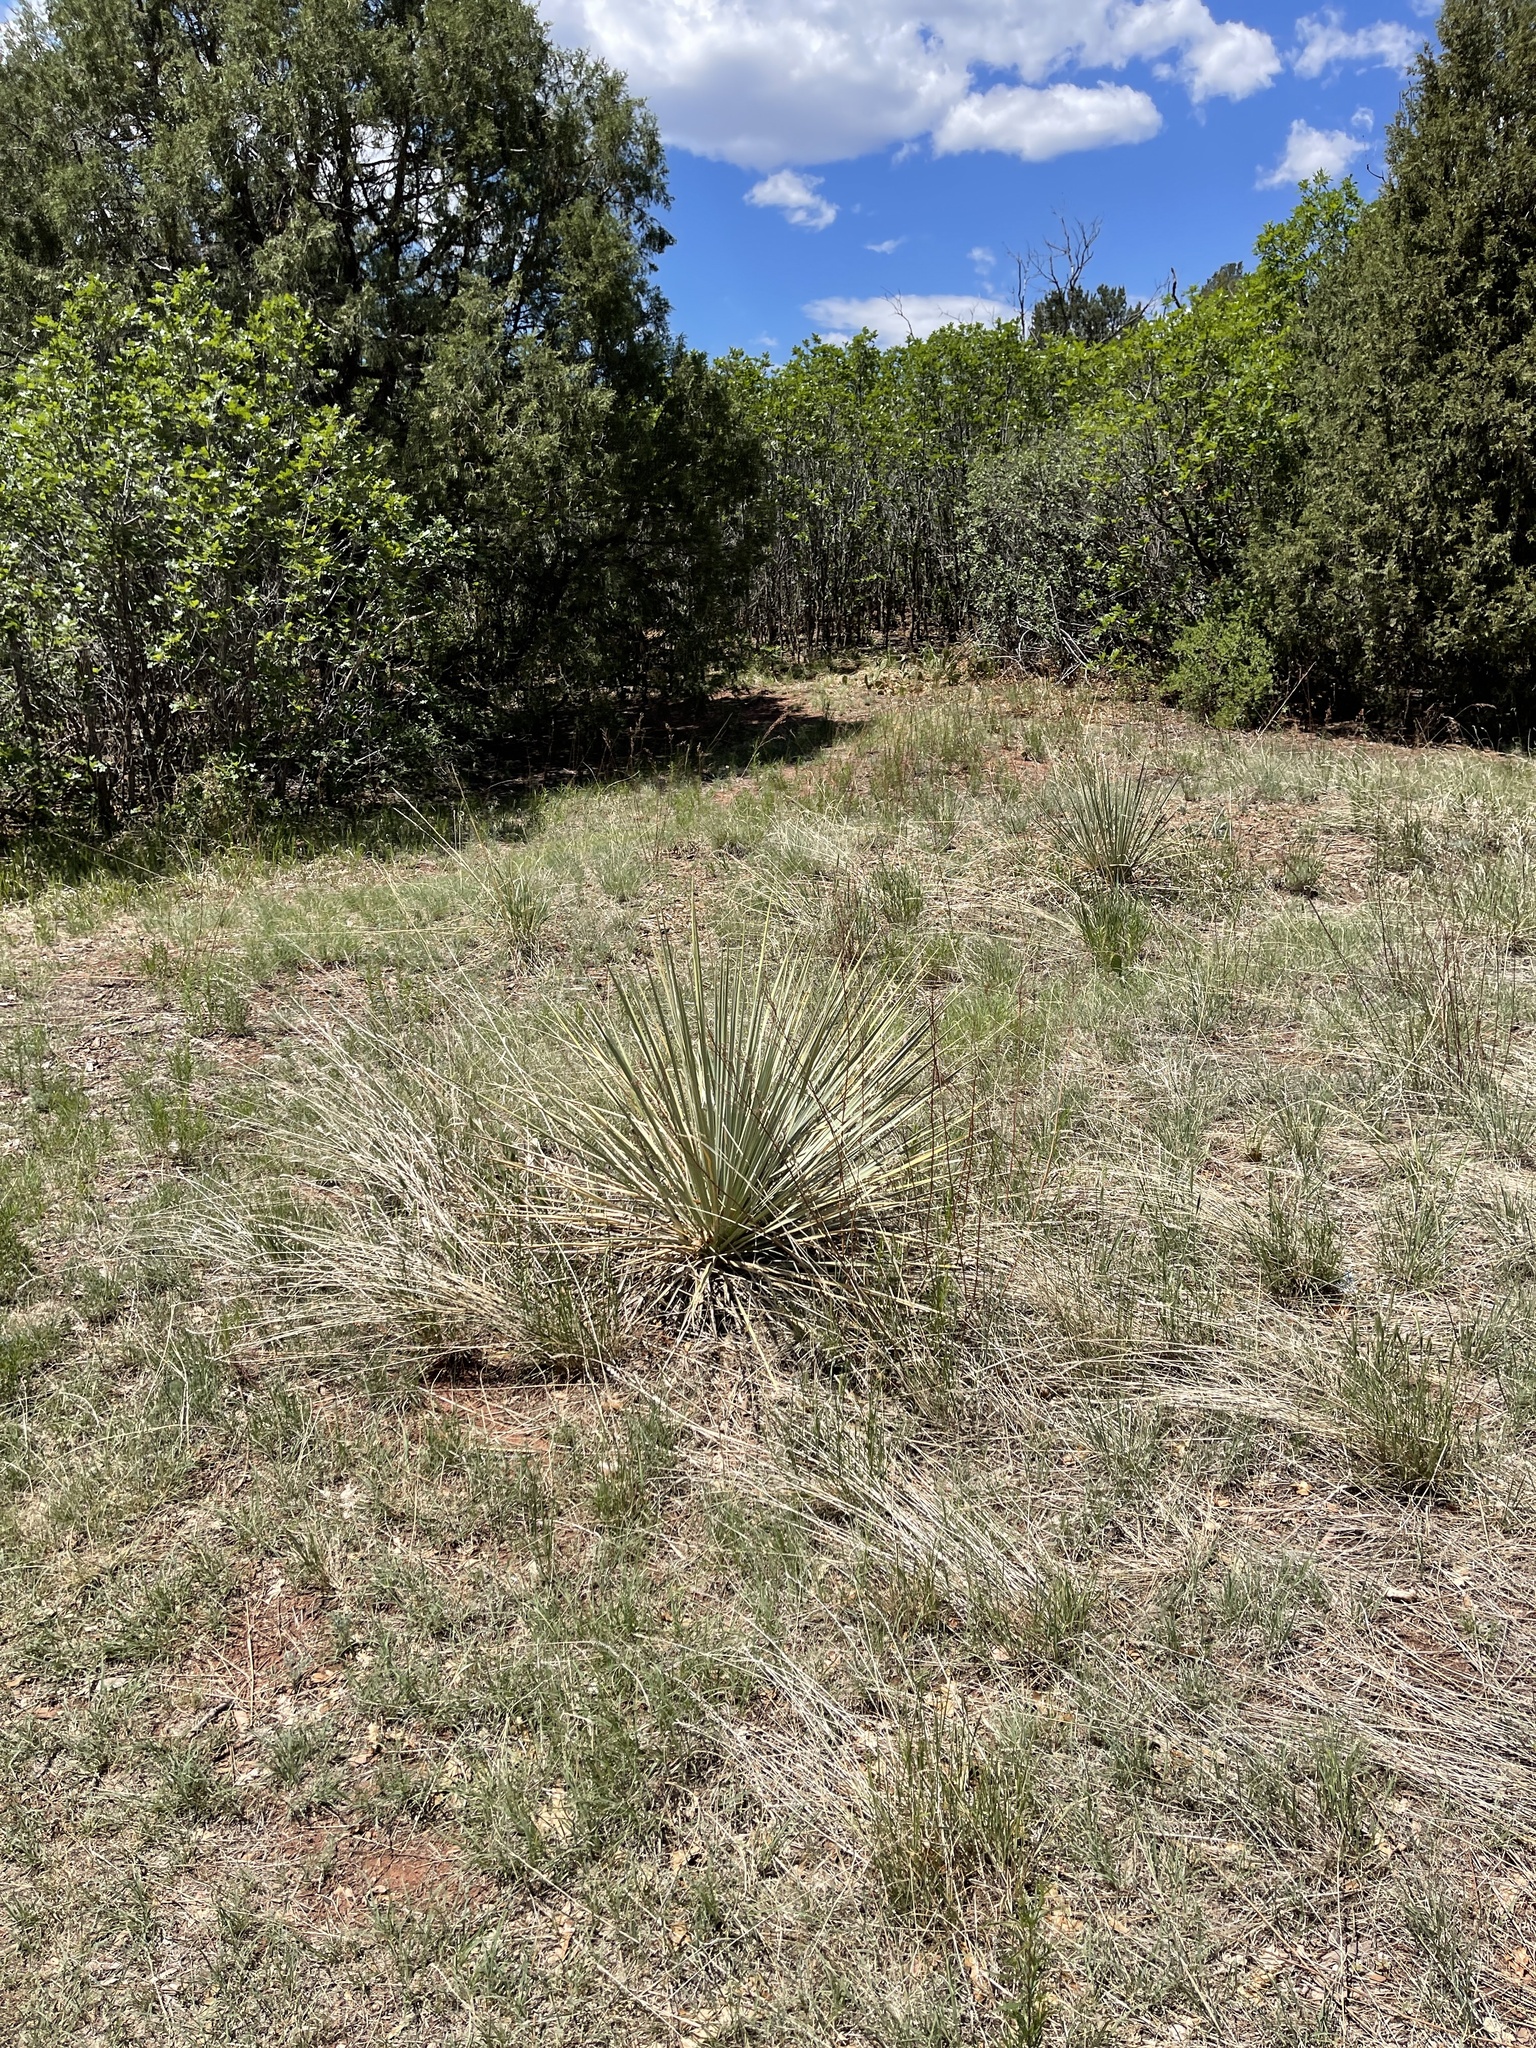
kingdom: Plantae
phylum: Tracheophyta
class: Liliopsida
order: Asparagales
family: Asparagaceae
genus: Yucca
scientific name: Yucca glauca
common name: Great plains yucca
